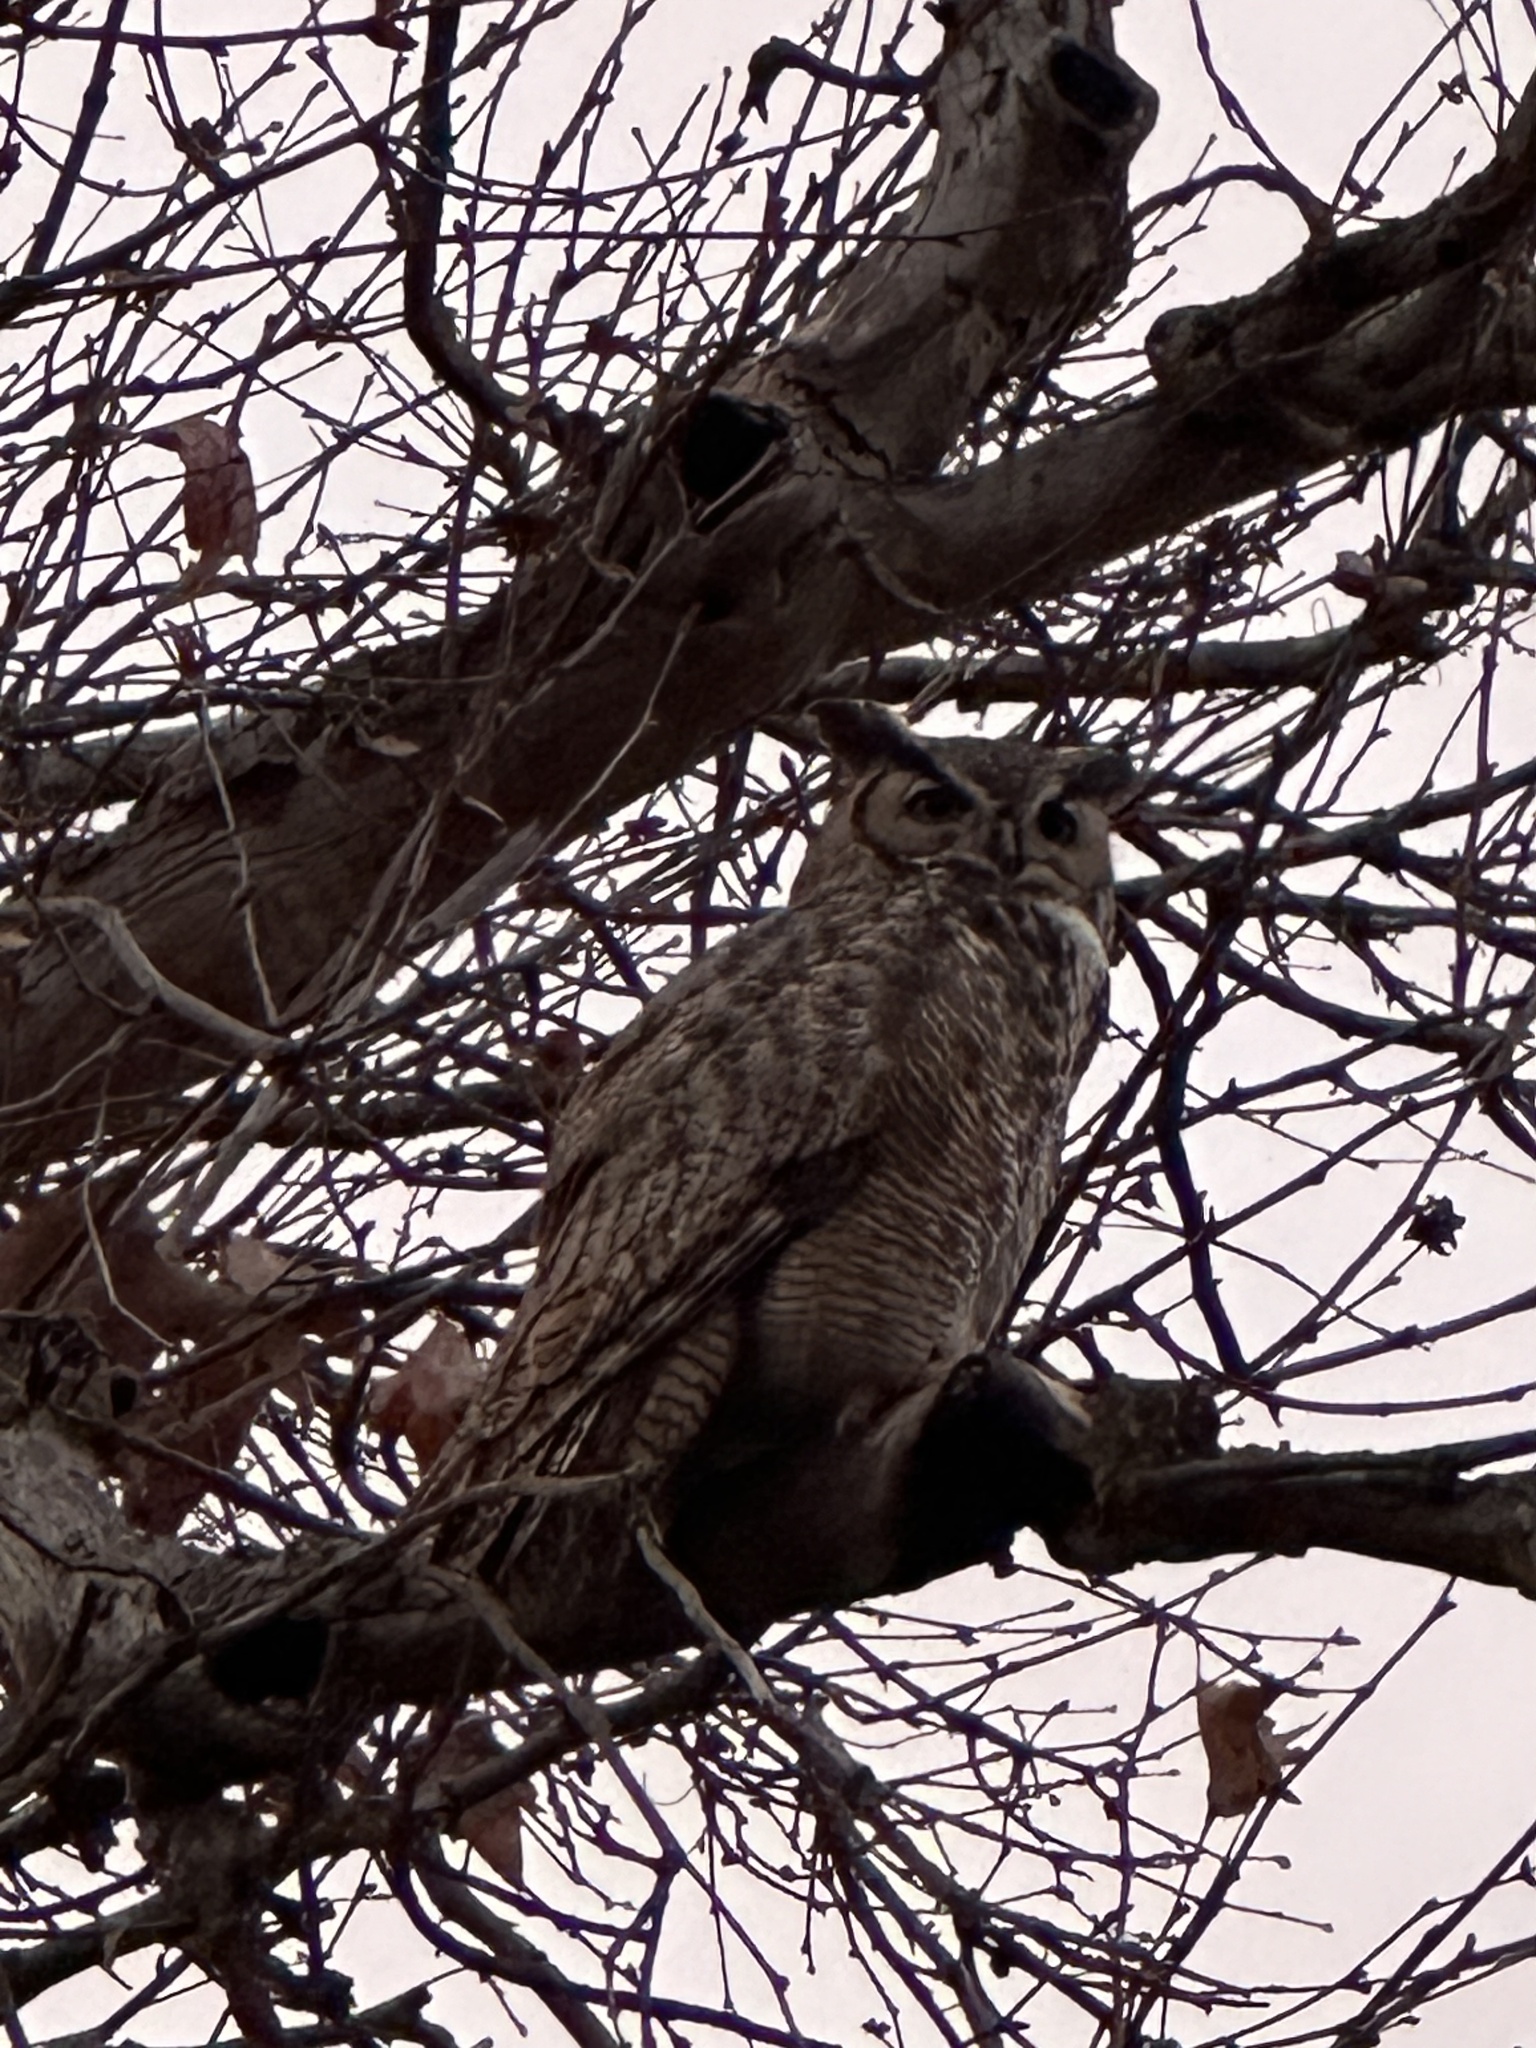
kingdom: Animalia
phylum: Chordata
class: Aves
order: Strigiformes
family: Strigidae
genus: Bubo
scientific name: Bubo virginianus
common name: Great horned owl
